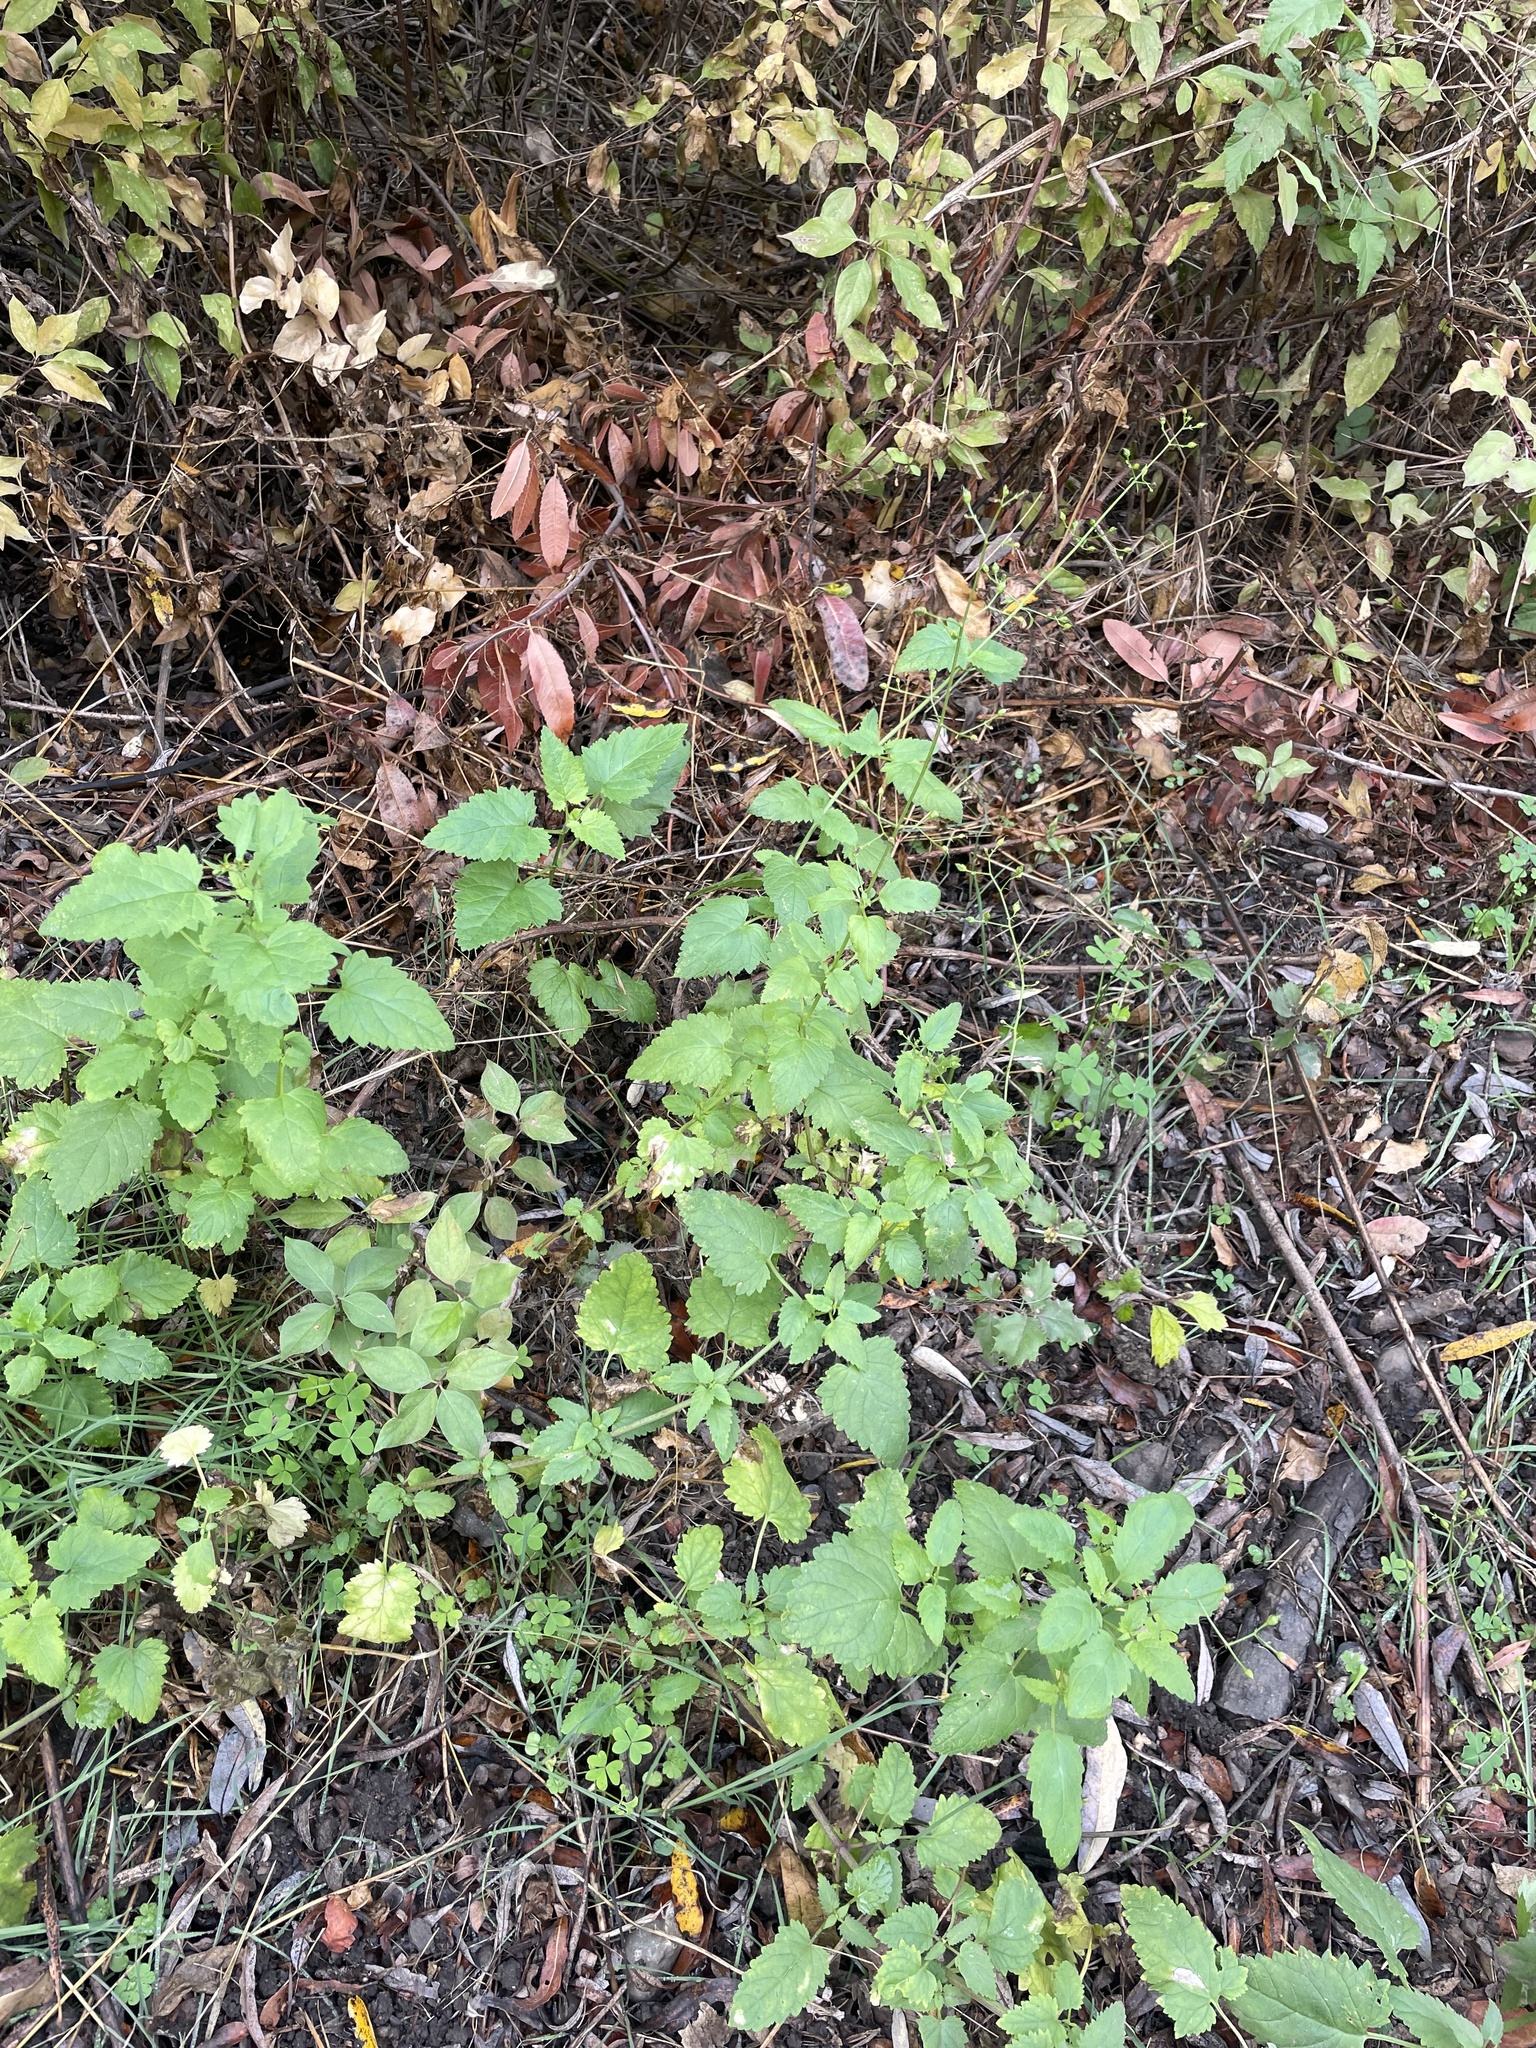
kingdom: Plantae
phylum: Tracheophyta
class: Magnoliopsida
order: Lamiales
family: Scrophulariaceae
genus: Scrophularia
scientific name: Scrophularia californica
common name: California figwort
